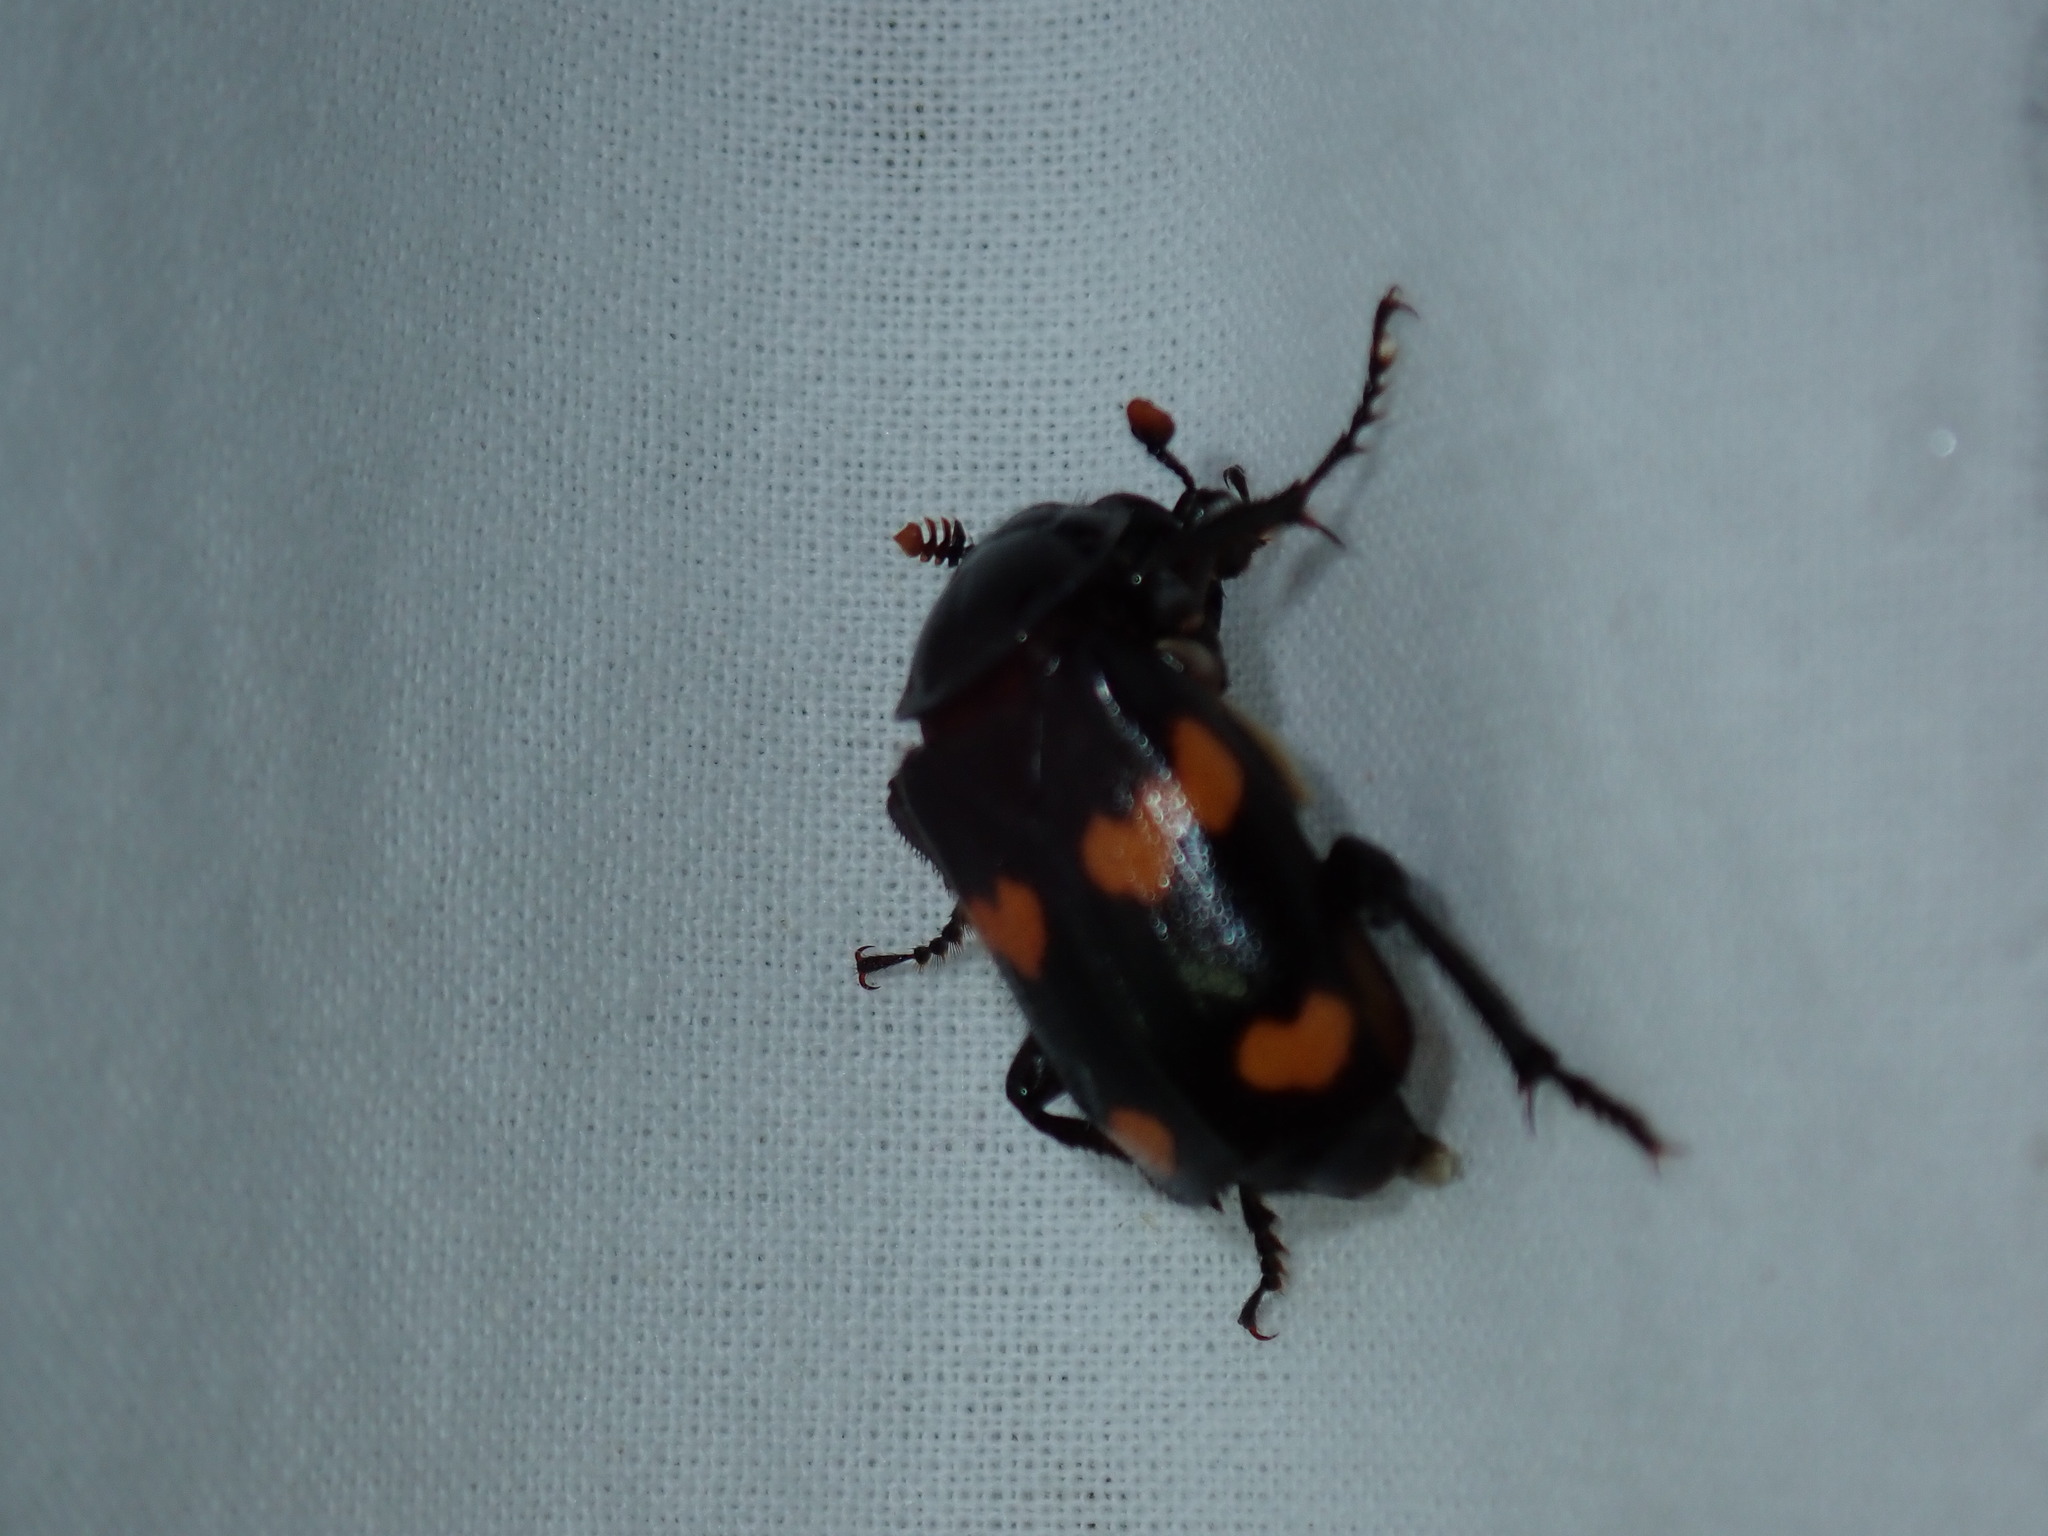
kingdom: Animalia
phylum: Arthropoda
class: Insecta
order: Coleoptera
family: Staphylinidae
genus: Nicrophorus
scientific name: Nicrophorus orbicollis
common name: Roundneck sexton beetle
